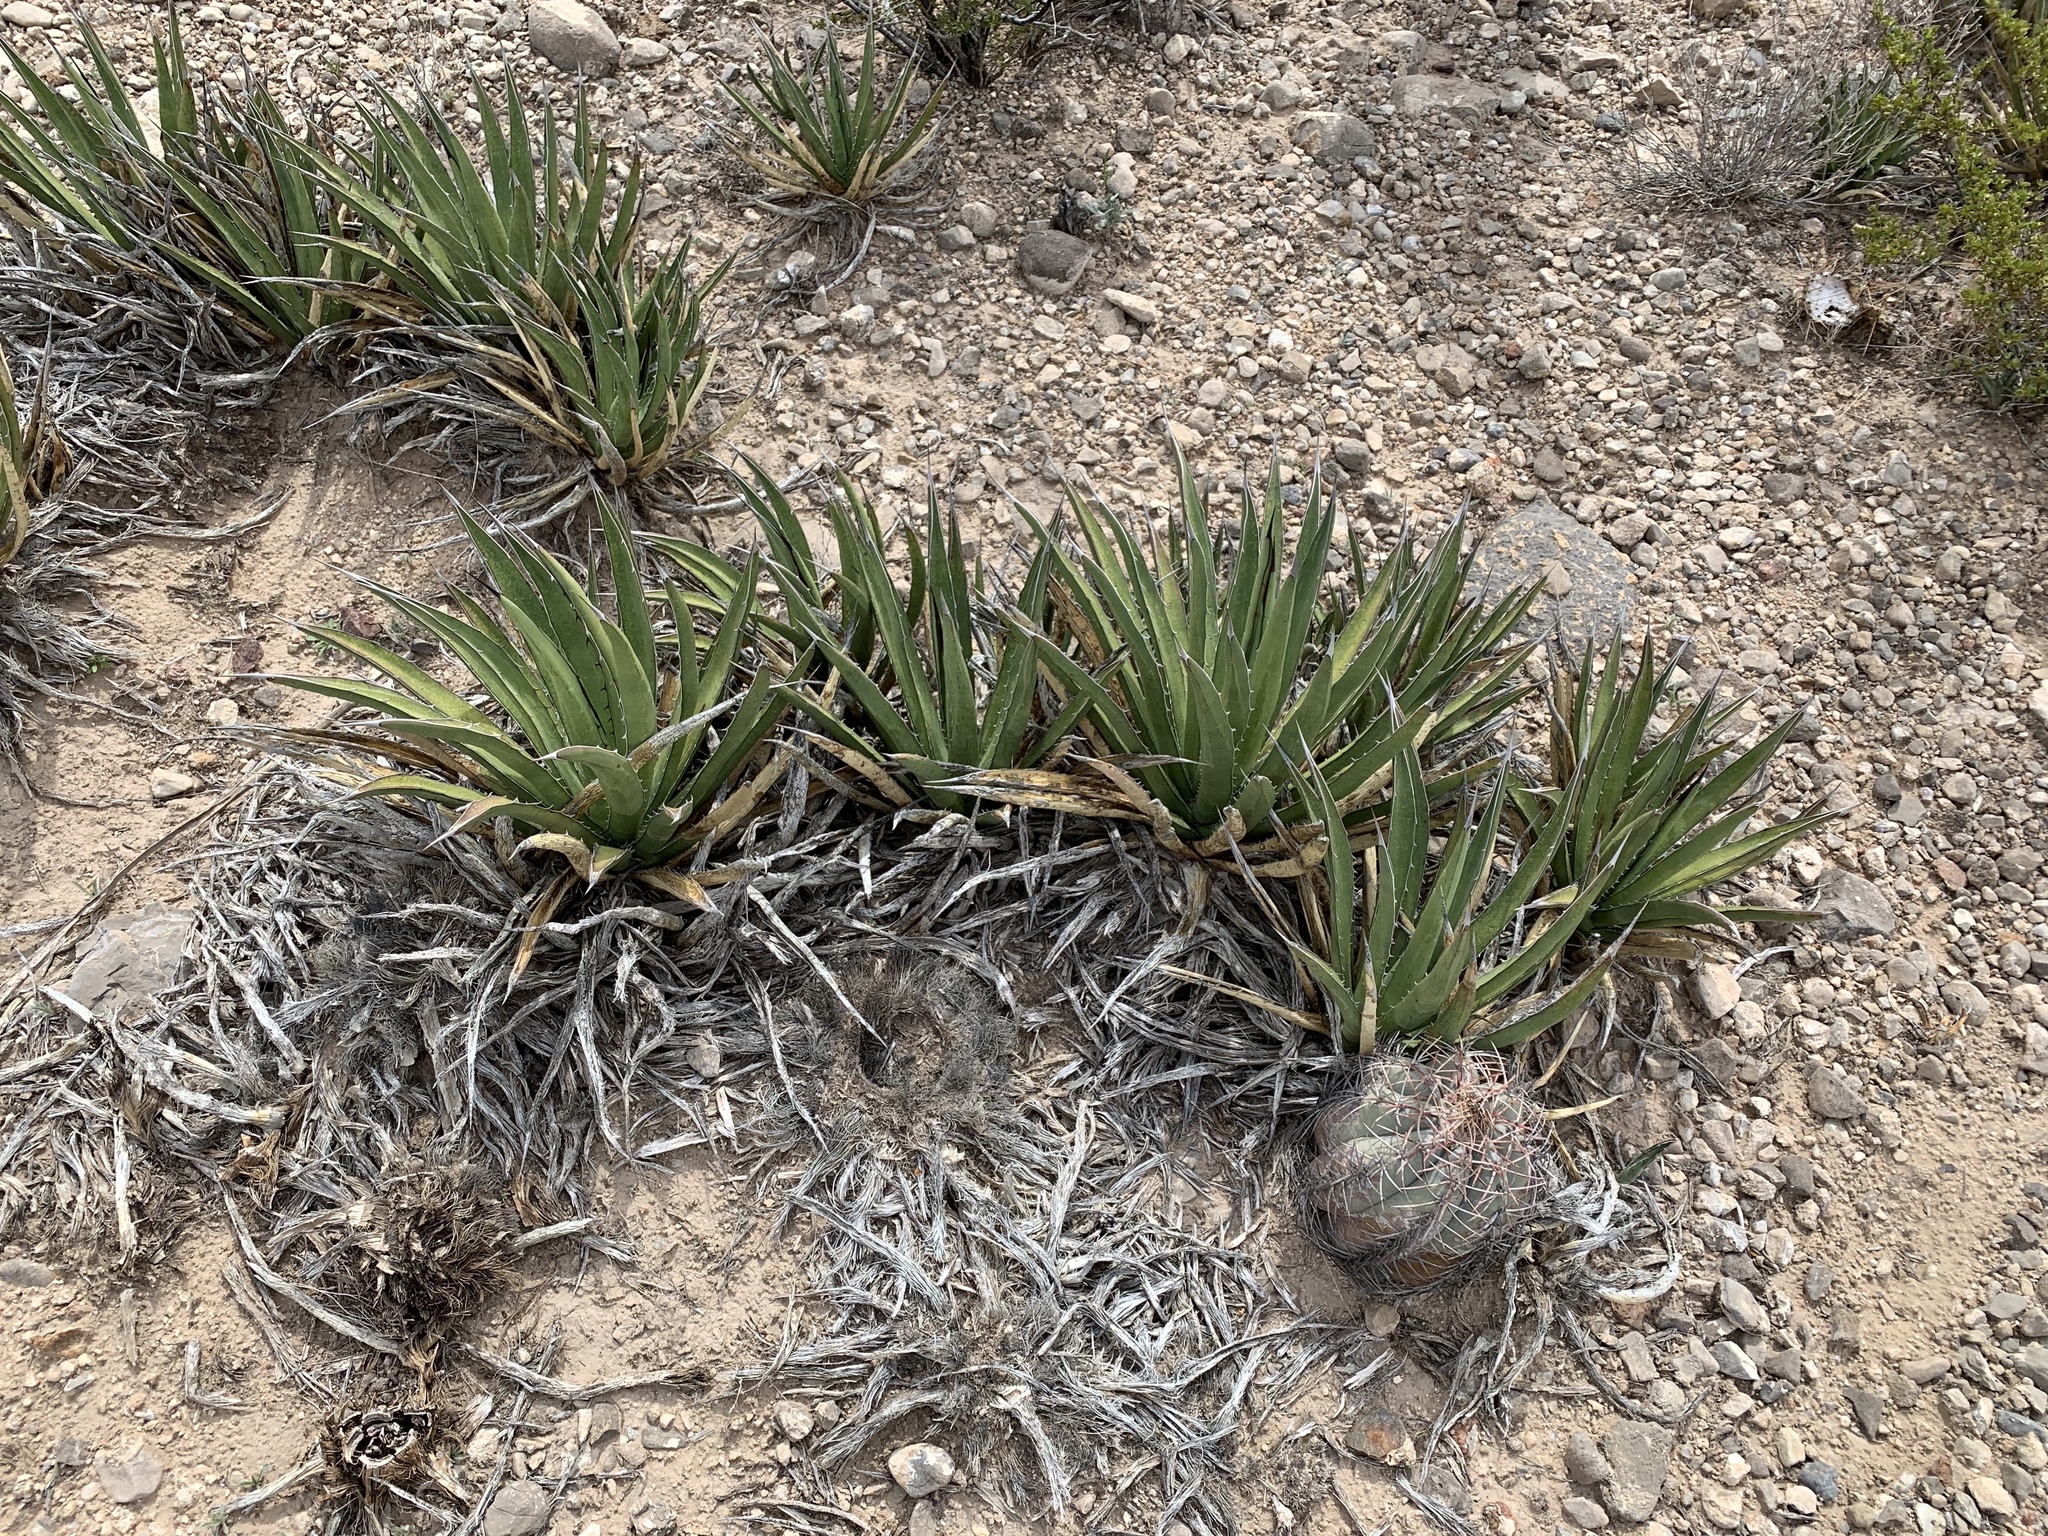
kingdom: Plantae
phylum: Tracheophyta
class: Liliopsida
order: Asparagales
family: Asparagaceae
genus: Agave
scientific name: Agave lechuguilla
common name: Lecheguilla agave
